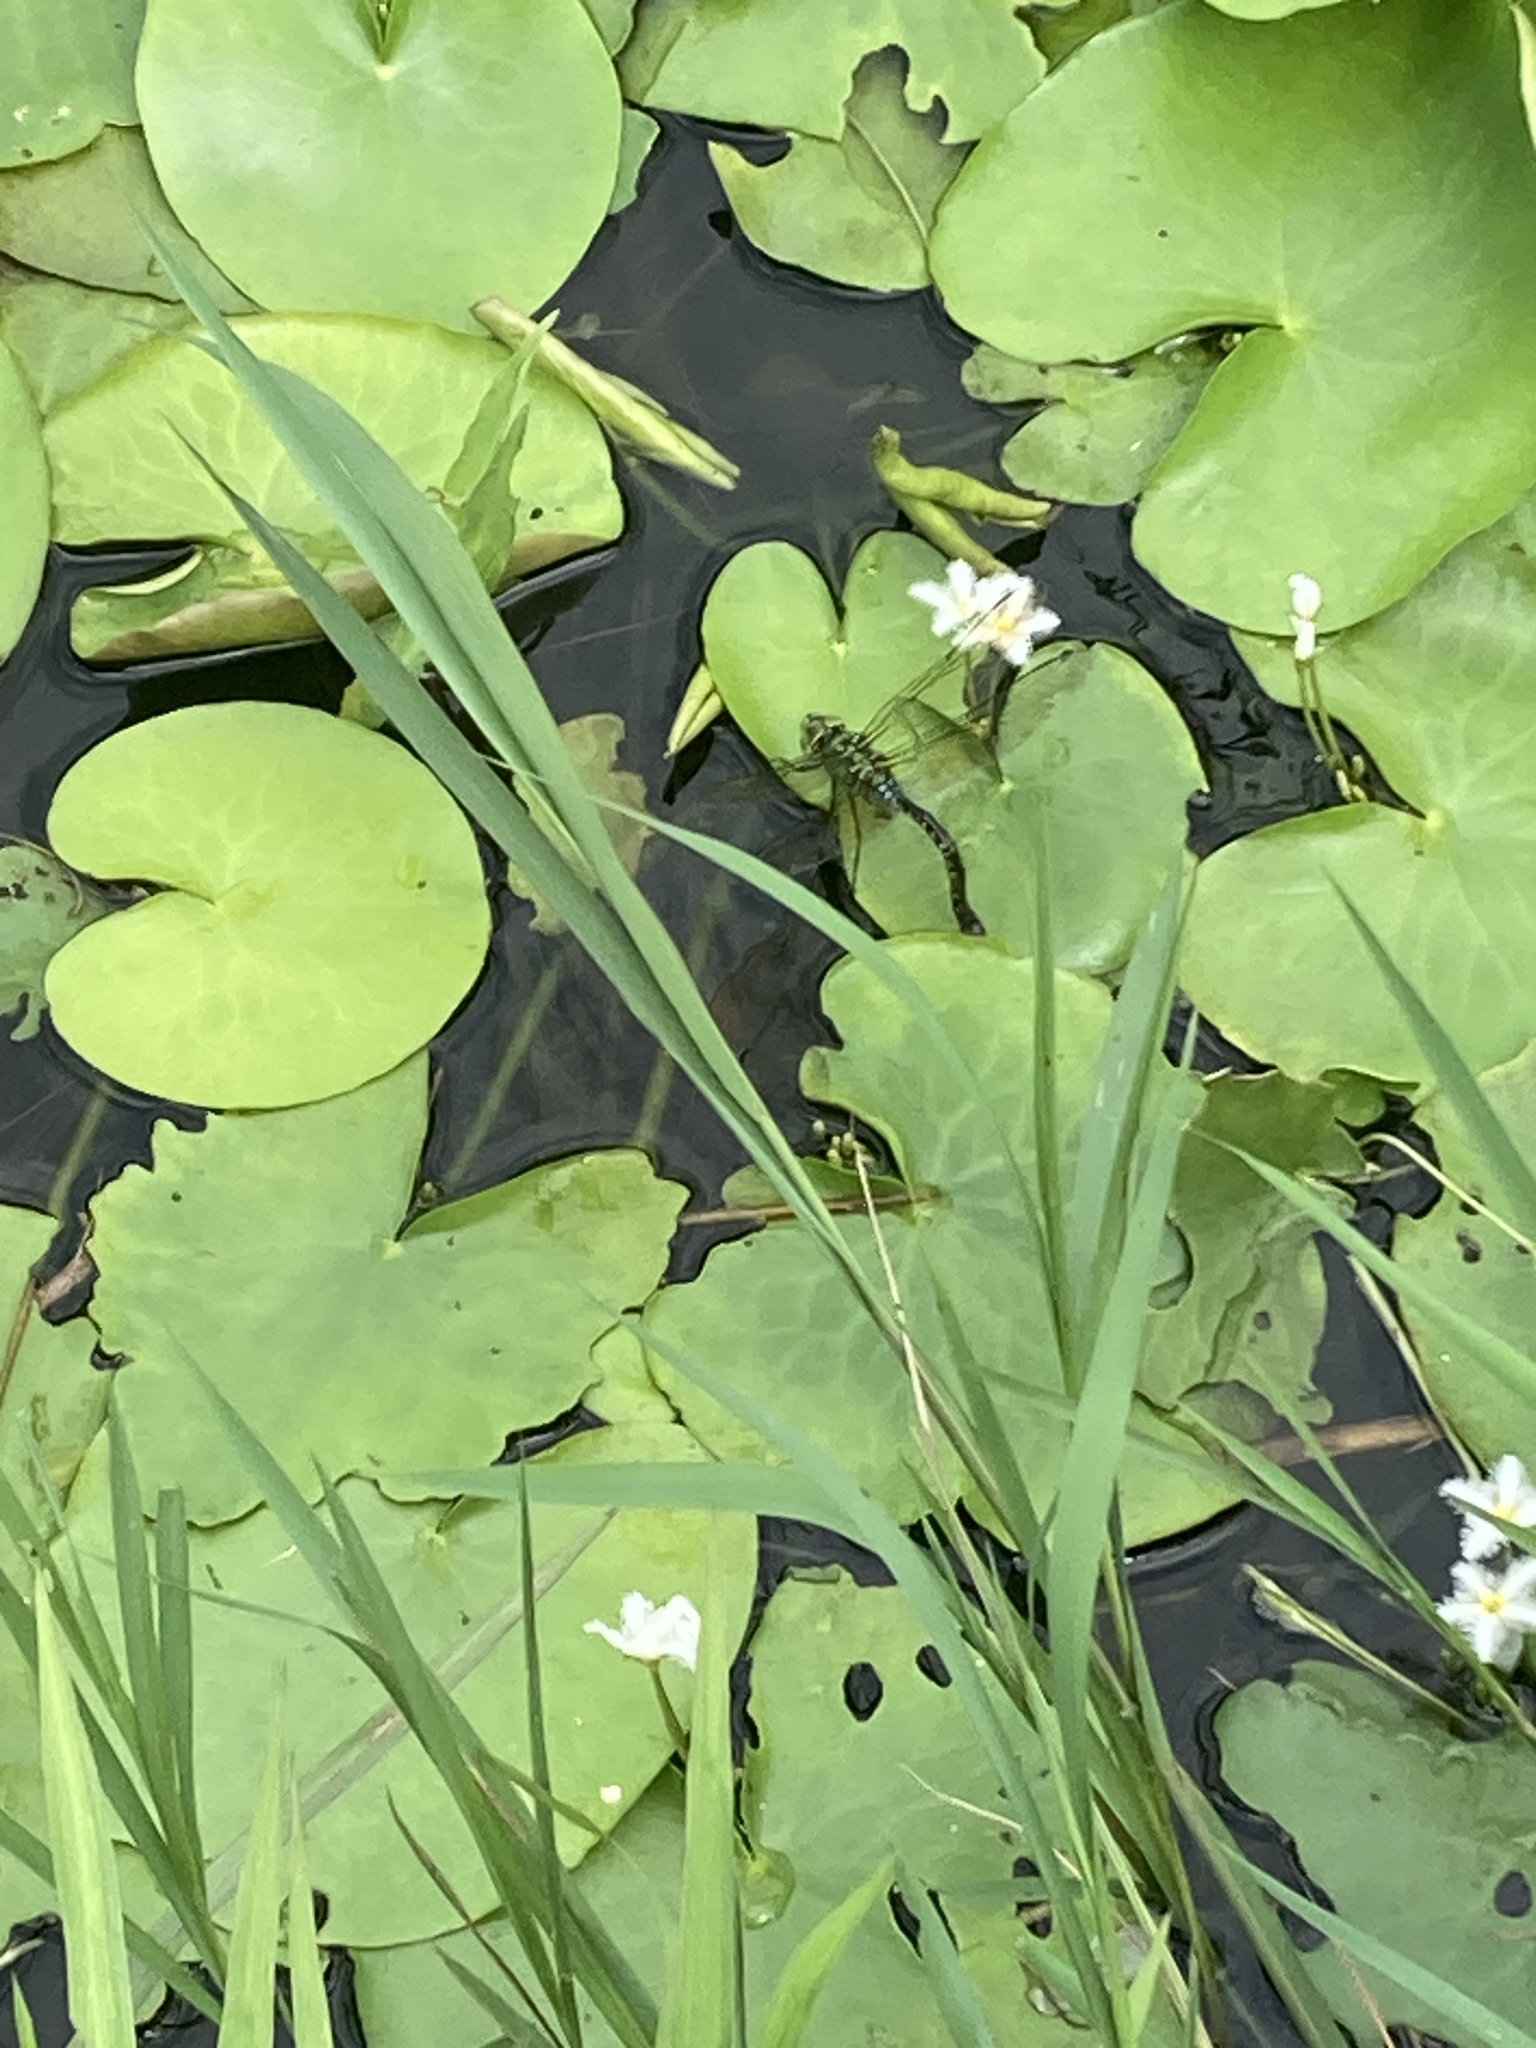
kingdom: Animalia
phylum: Arthropoda
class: Insecta
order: Odonata
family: Aeshnidae
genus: Anax
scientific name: Anax panybeus
